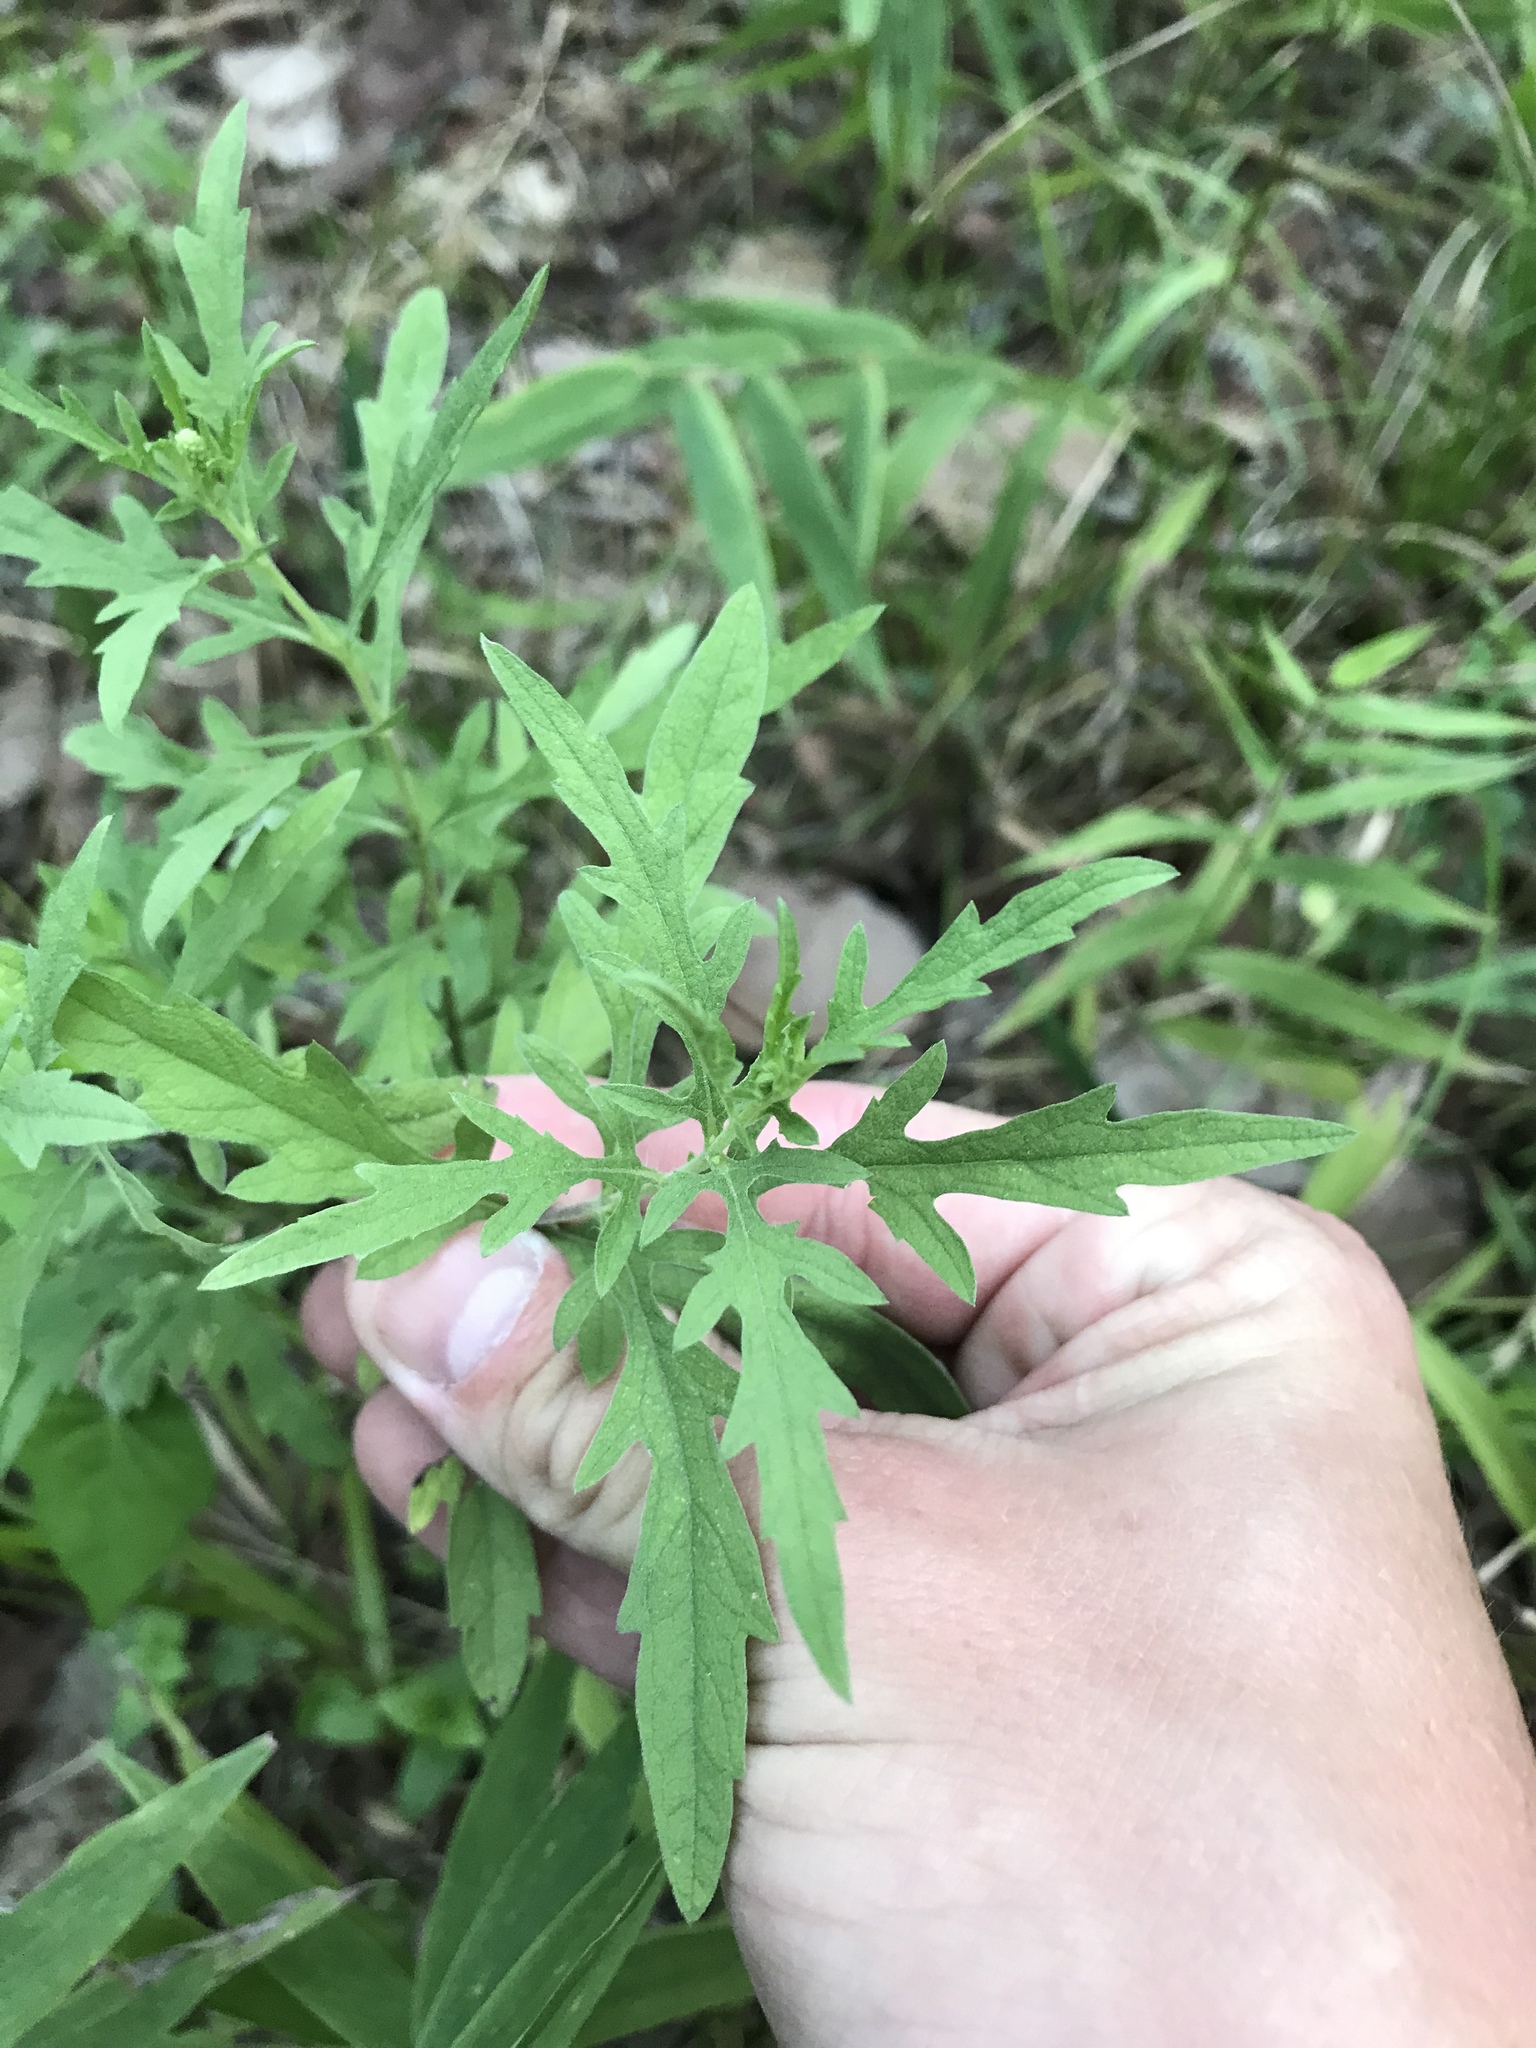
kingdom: Plantae
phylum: Tracheophyta
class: Magnoliopsida
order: Asterales
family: Asteraceae
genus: Ambrosia
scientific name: Ambrosia psilostachya
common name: Perennial ragweed
